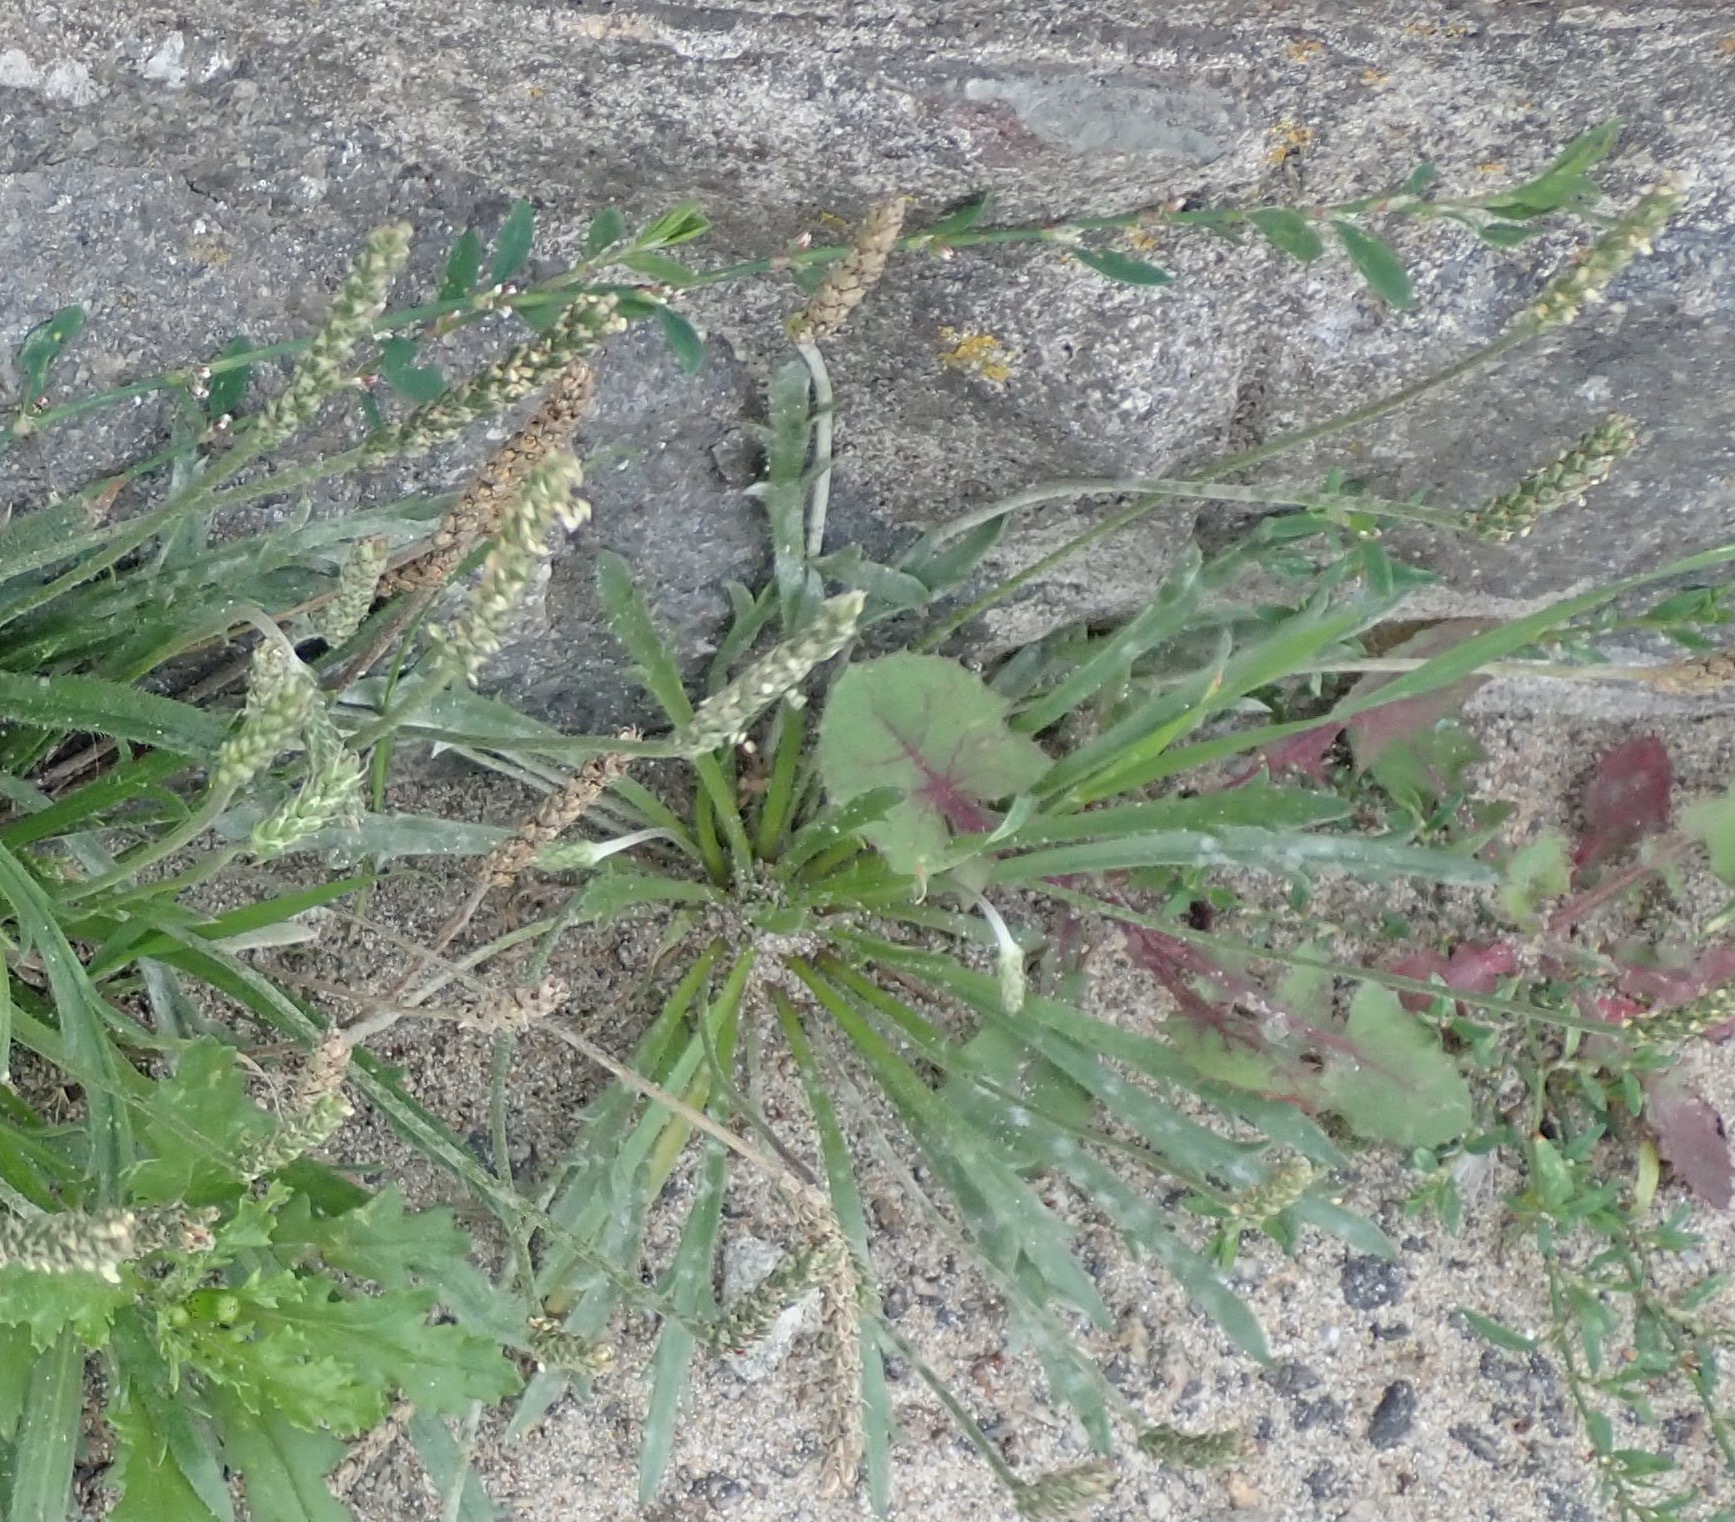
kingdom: Plantae
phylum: Tracheophyta
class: Magnoliopsida
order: Lamiales
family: Plantaginaceae
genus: Plantago
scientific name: Plantago coronopus
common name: Buck's-horn plantain
